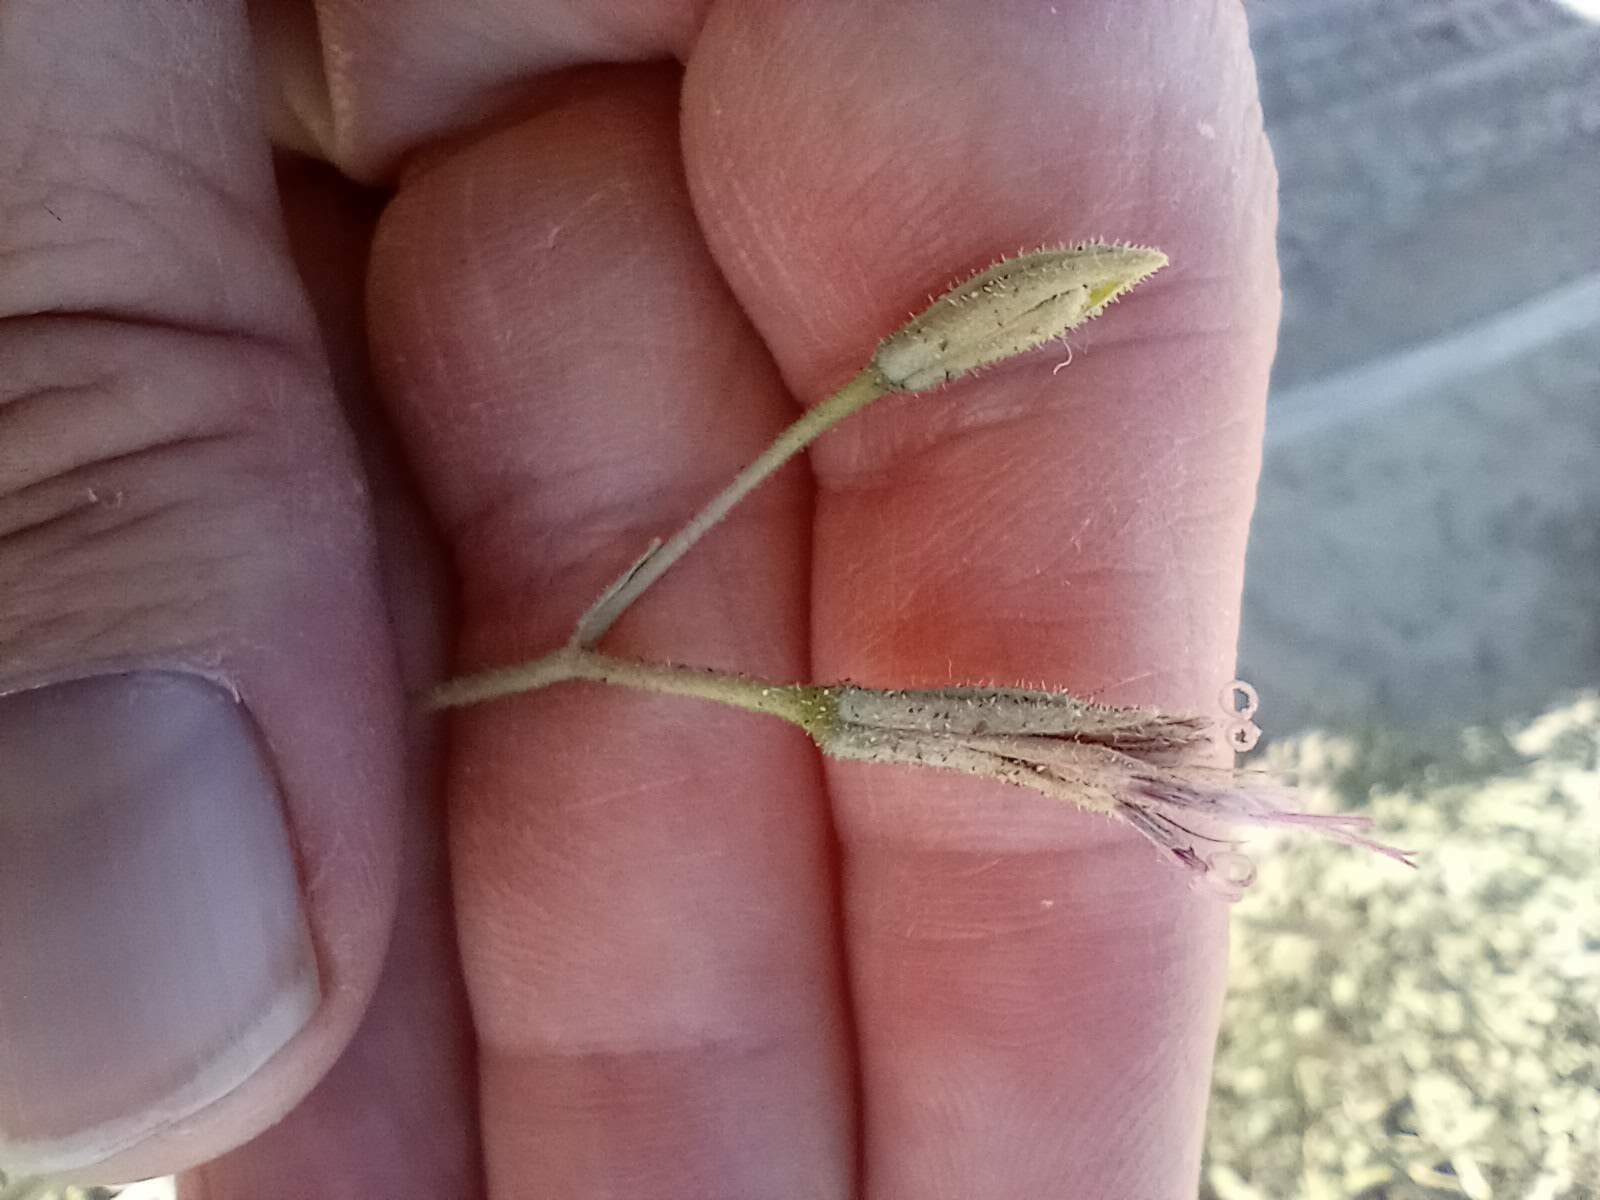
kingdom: Plantae
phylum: Tracheophyta
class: Magnoliopsida
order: Asterales
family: Asteraceae
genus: Palafoxia
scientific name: Palafoxia arida
